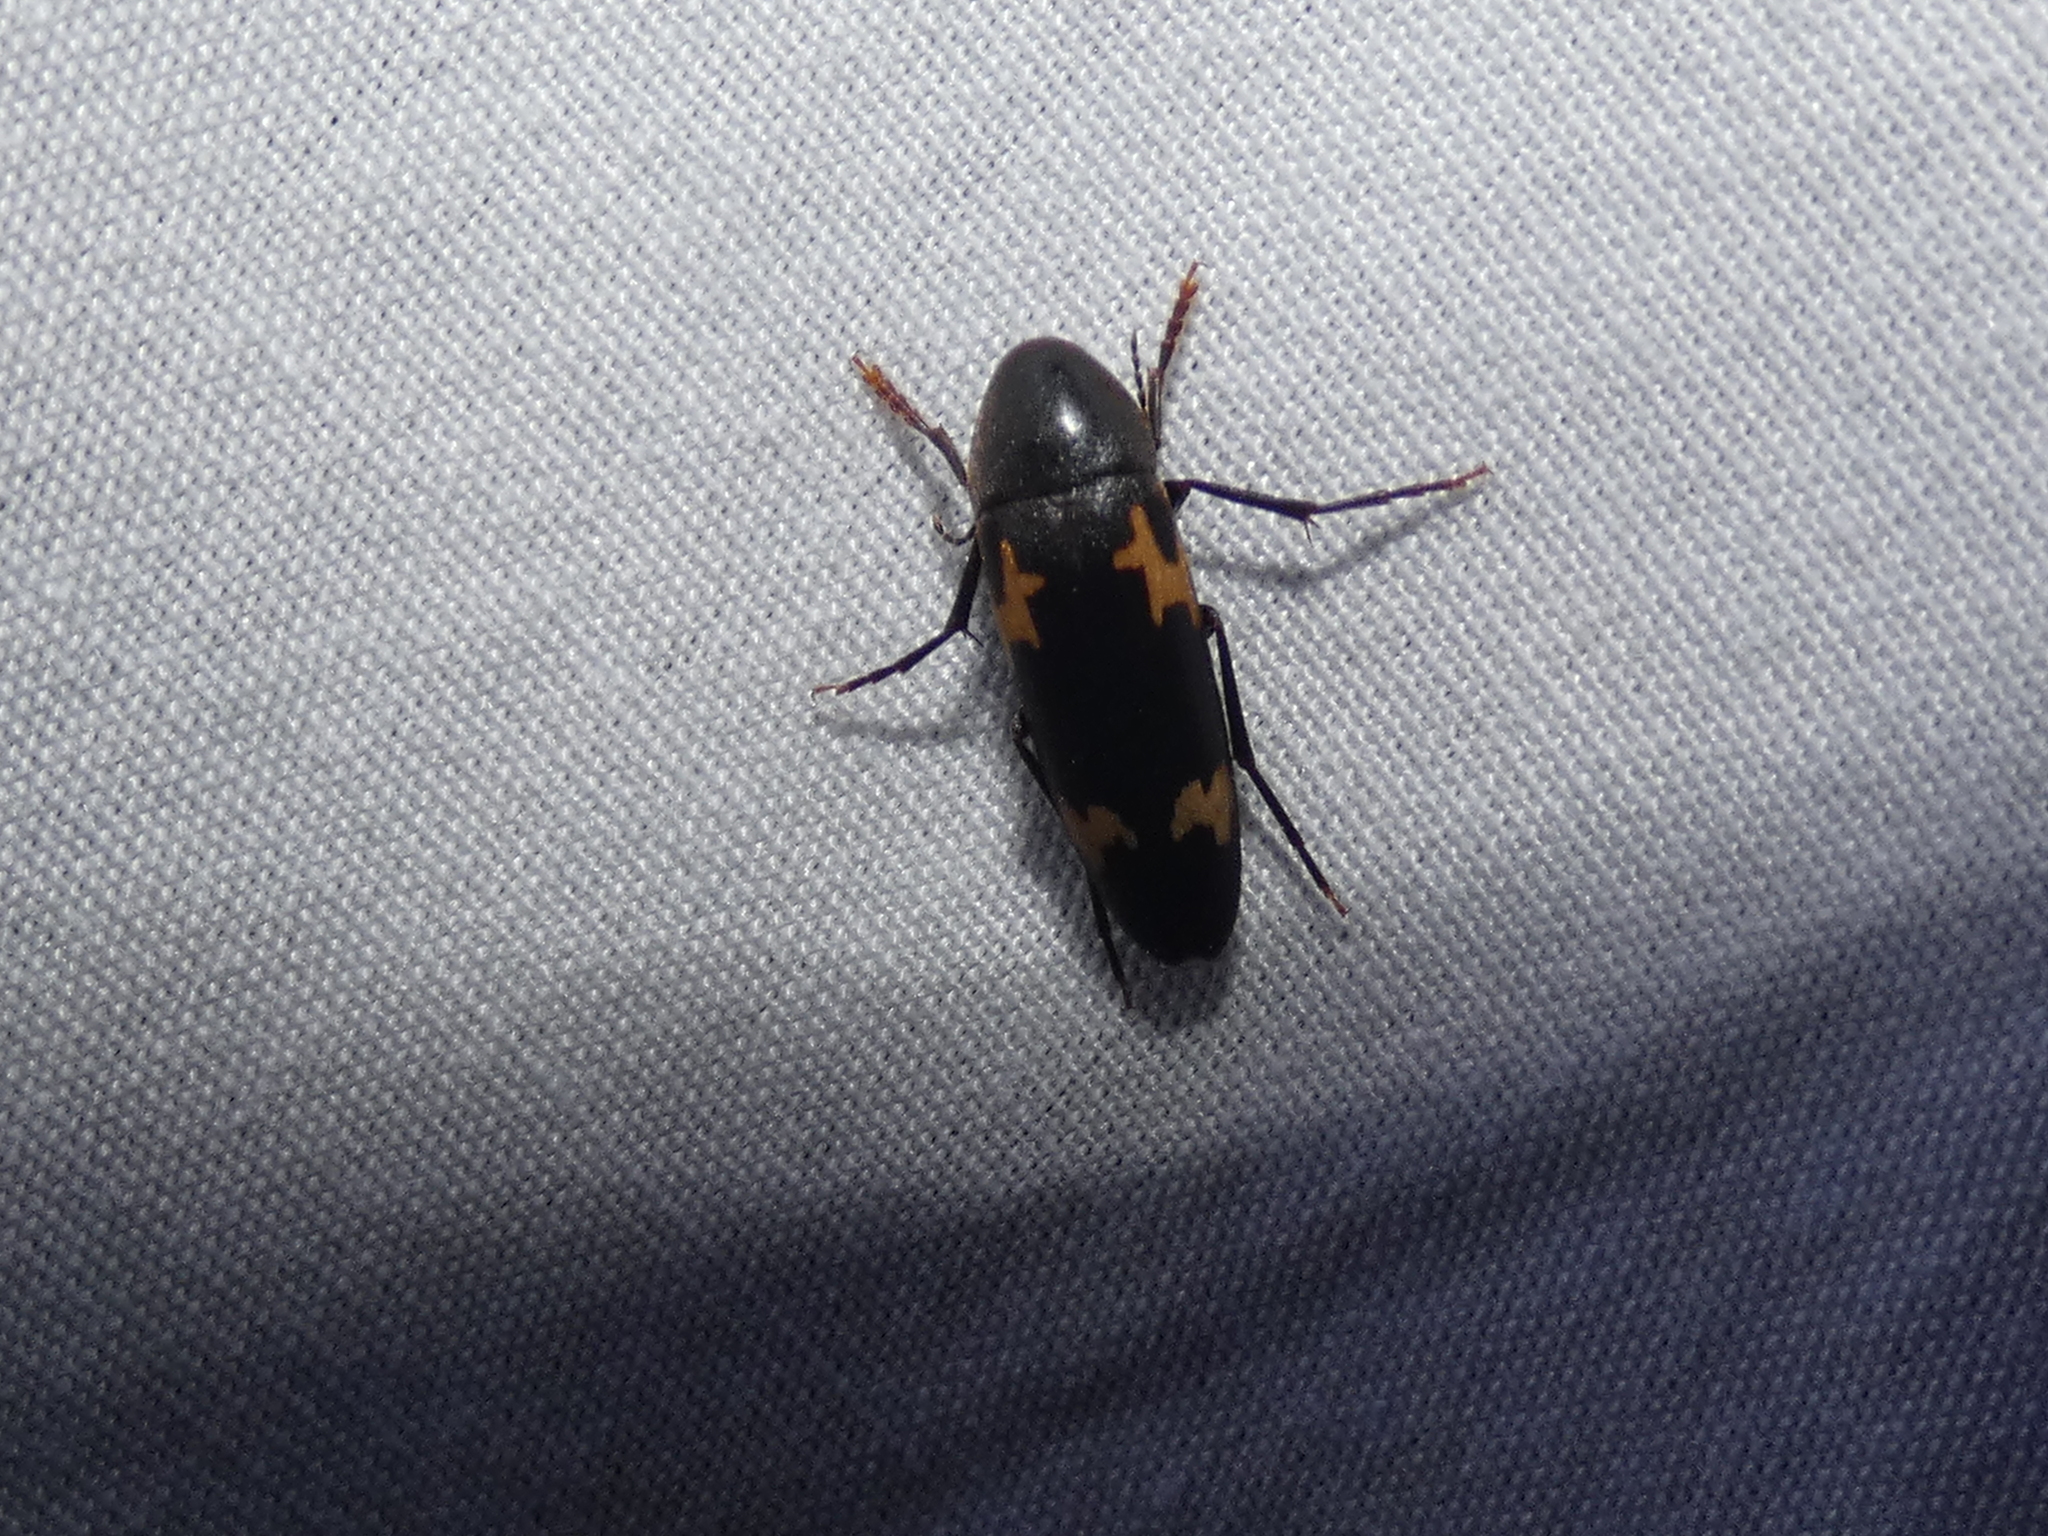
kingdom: Animalia
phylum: Arthropoda
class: Insecta
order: Coleoptera
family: Melandryidae
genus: Dircaea
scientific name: Dircaea liturata
